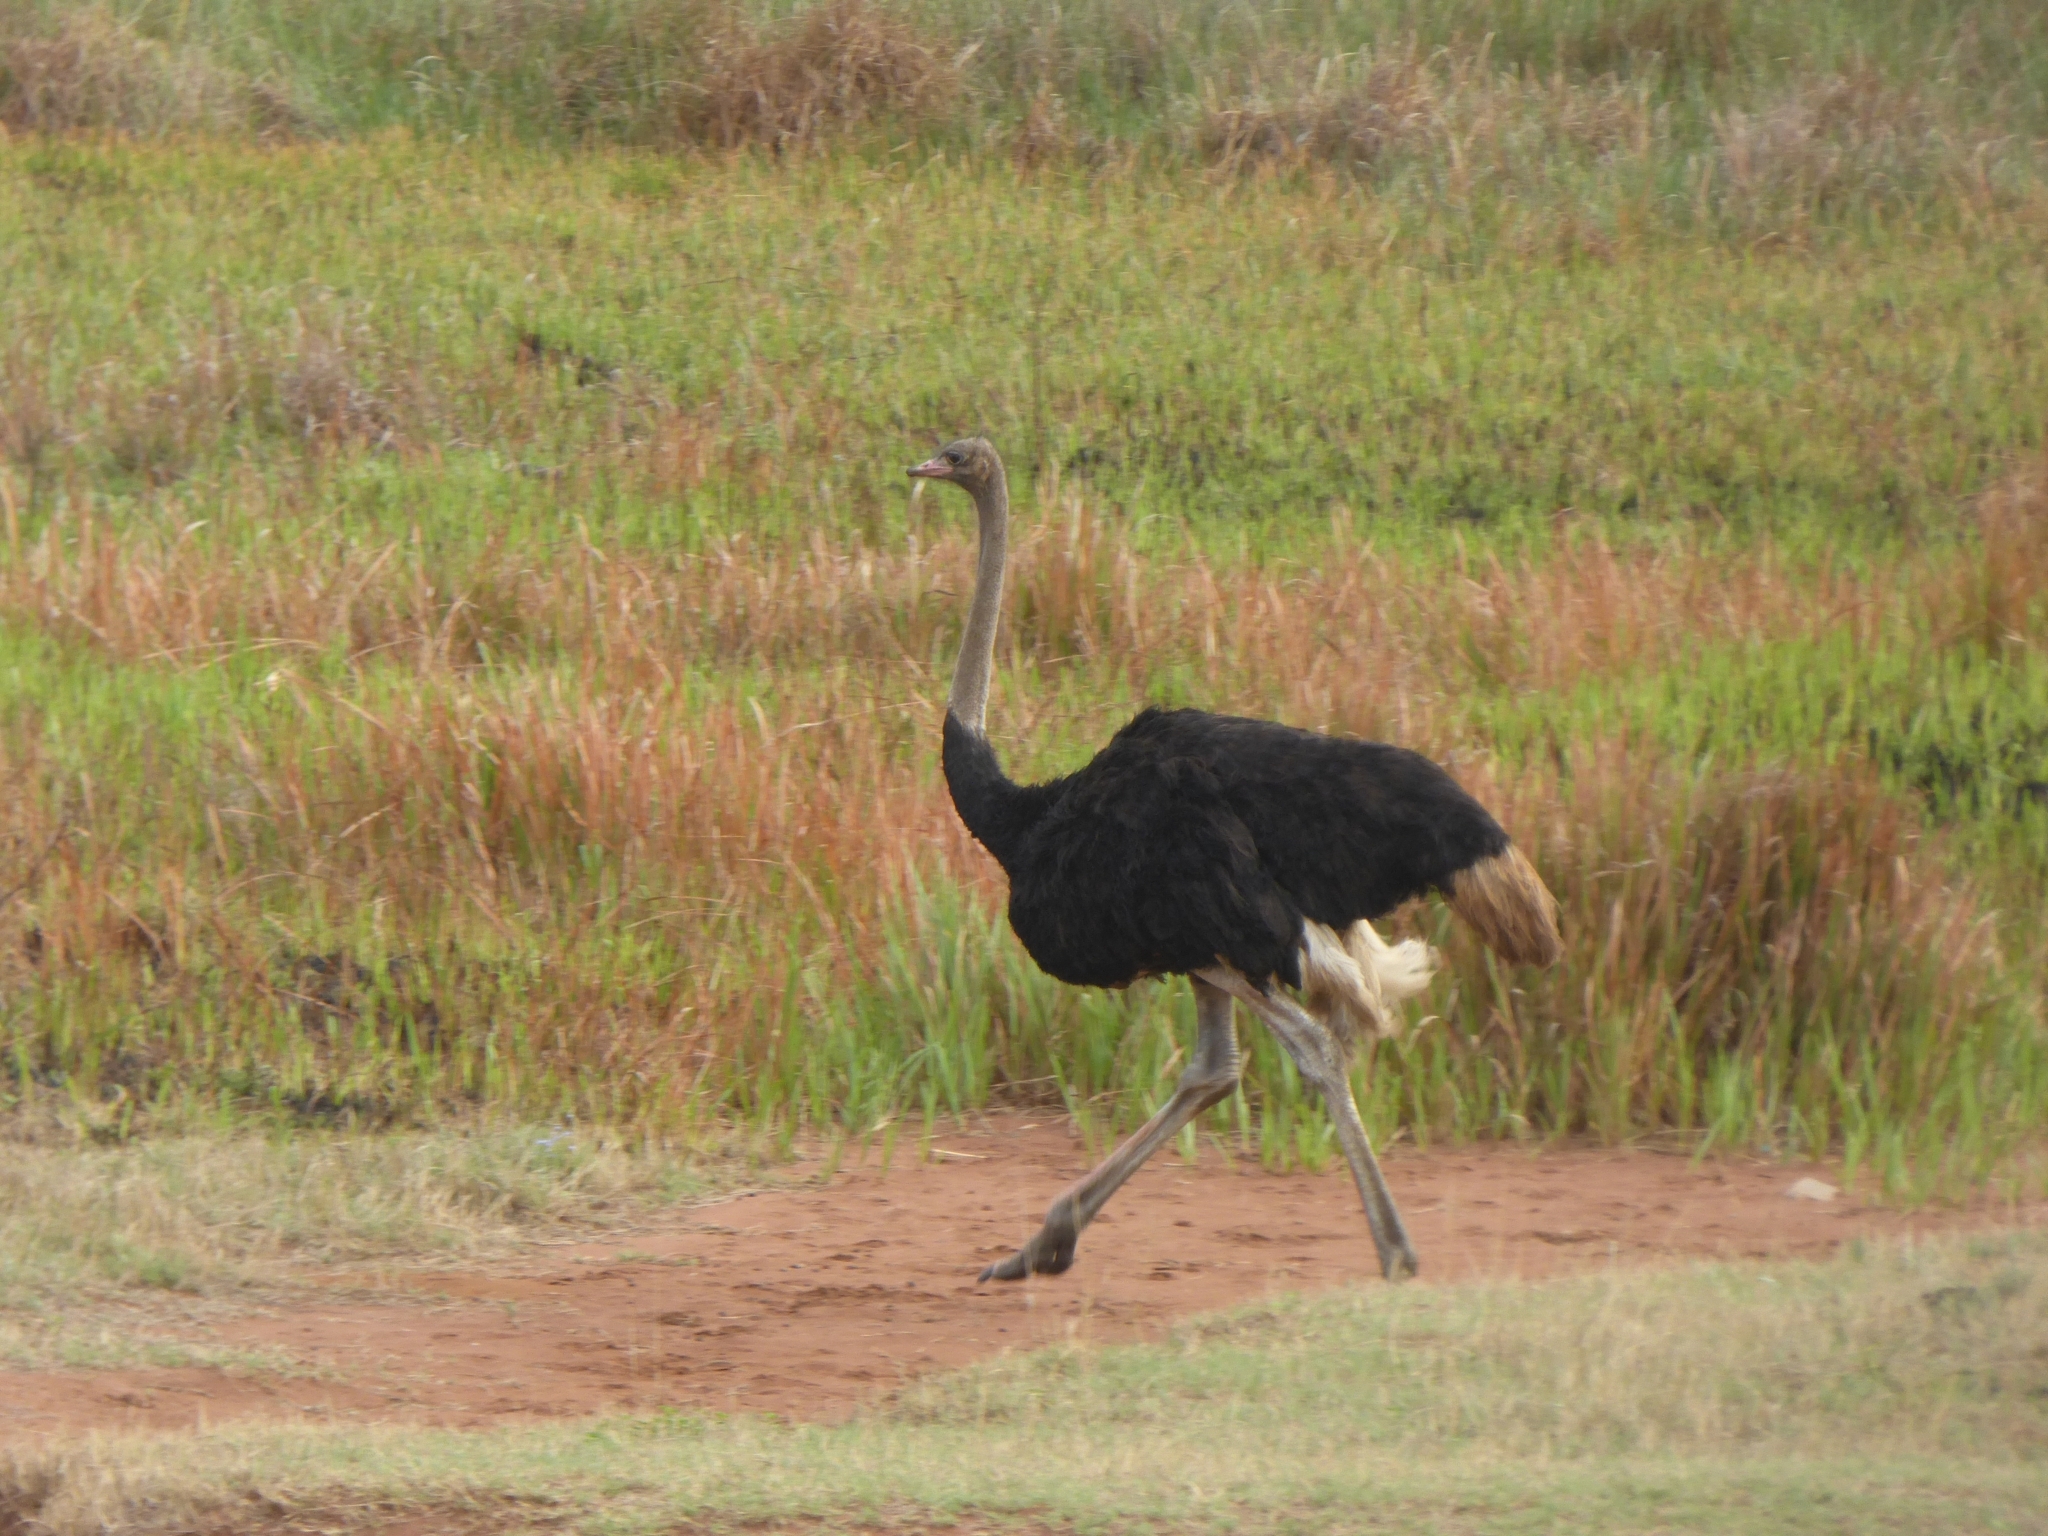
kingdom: Animalia
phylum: Chordata
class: Aves
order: Struthioniformes
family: Struthionidae
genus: Struthio
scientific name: Struthio camelus
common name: Common ostrich
